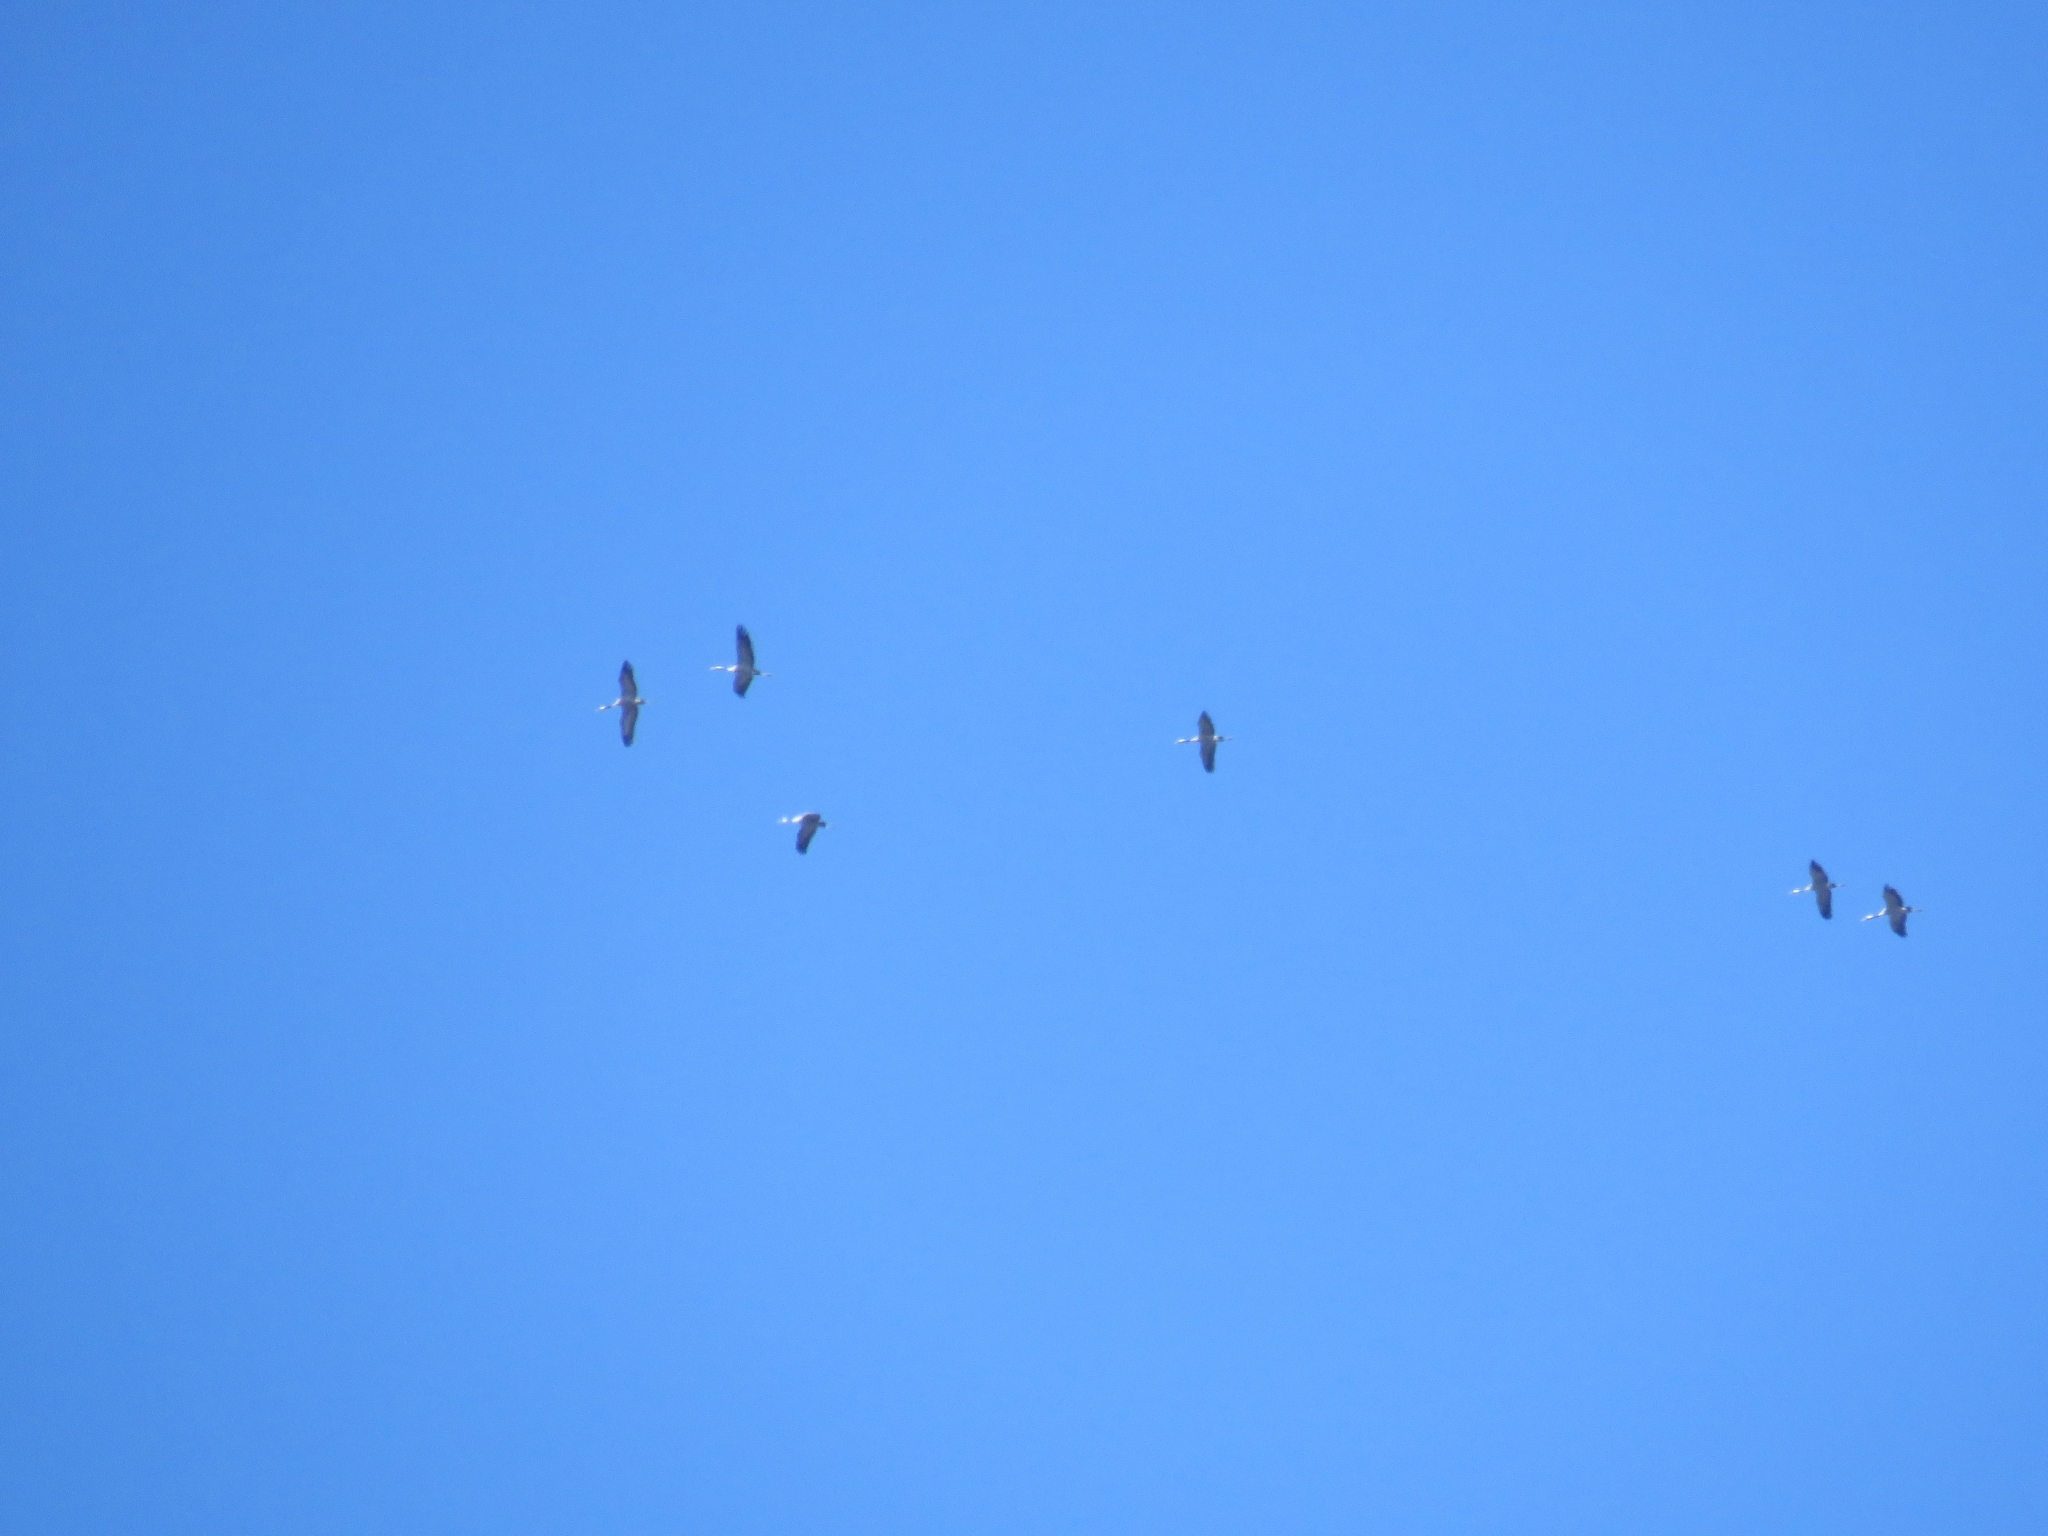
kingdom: Animalia
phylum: Chordata
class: Aves
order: Gruiformes
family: Gruidae
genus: Grus
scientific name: Grus grus
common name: Common crane
